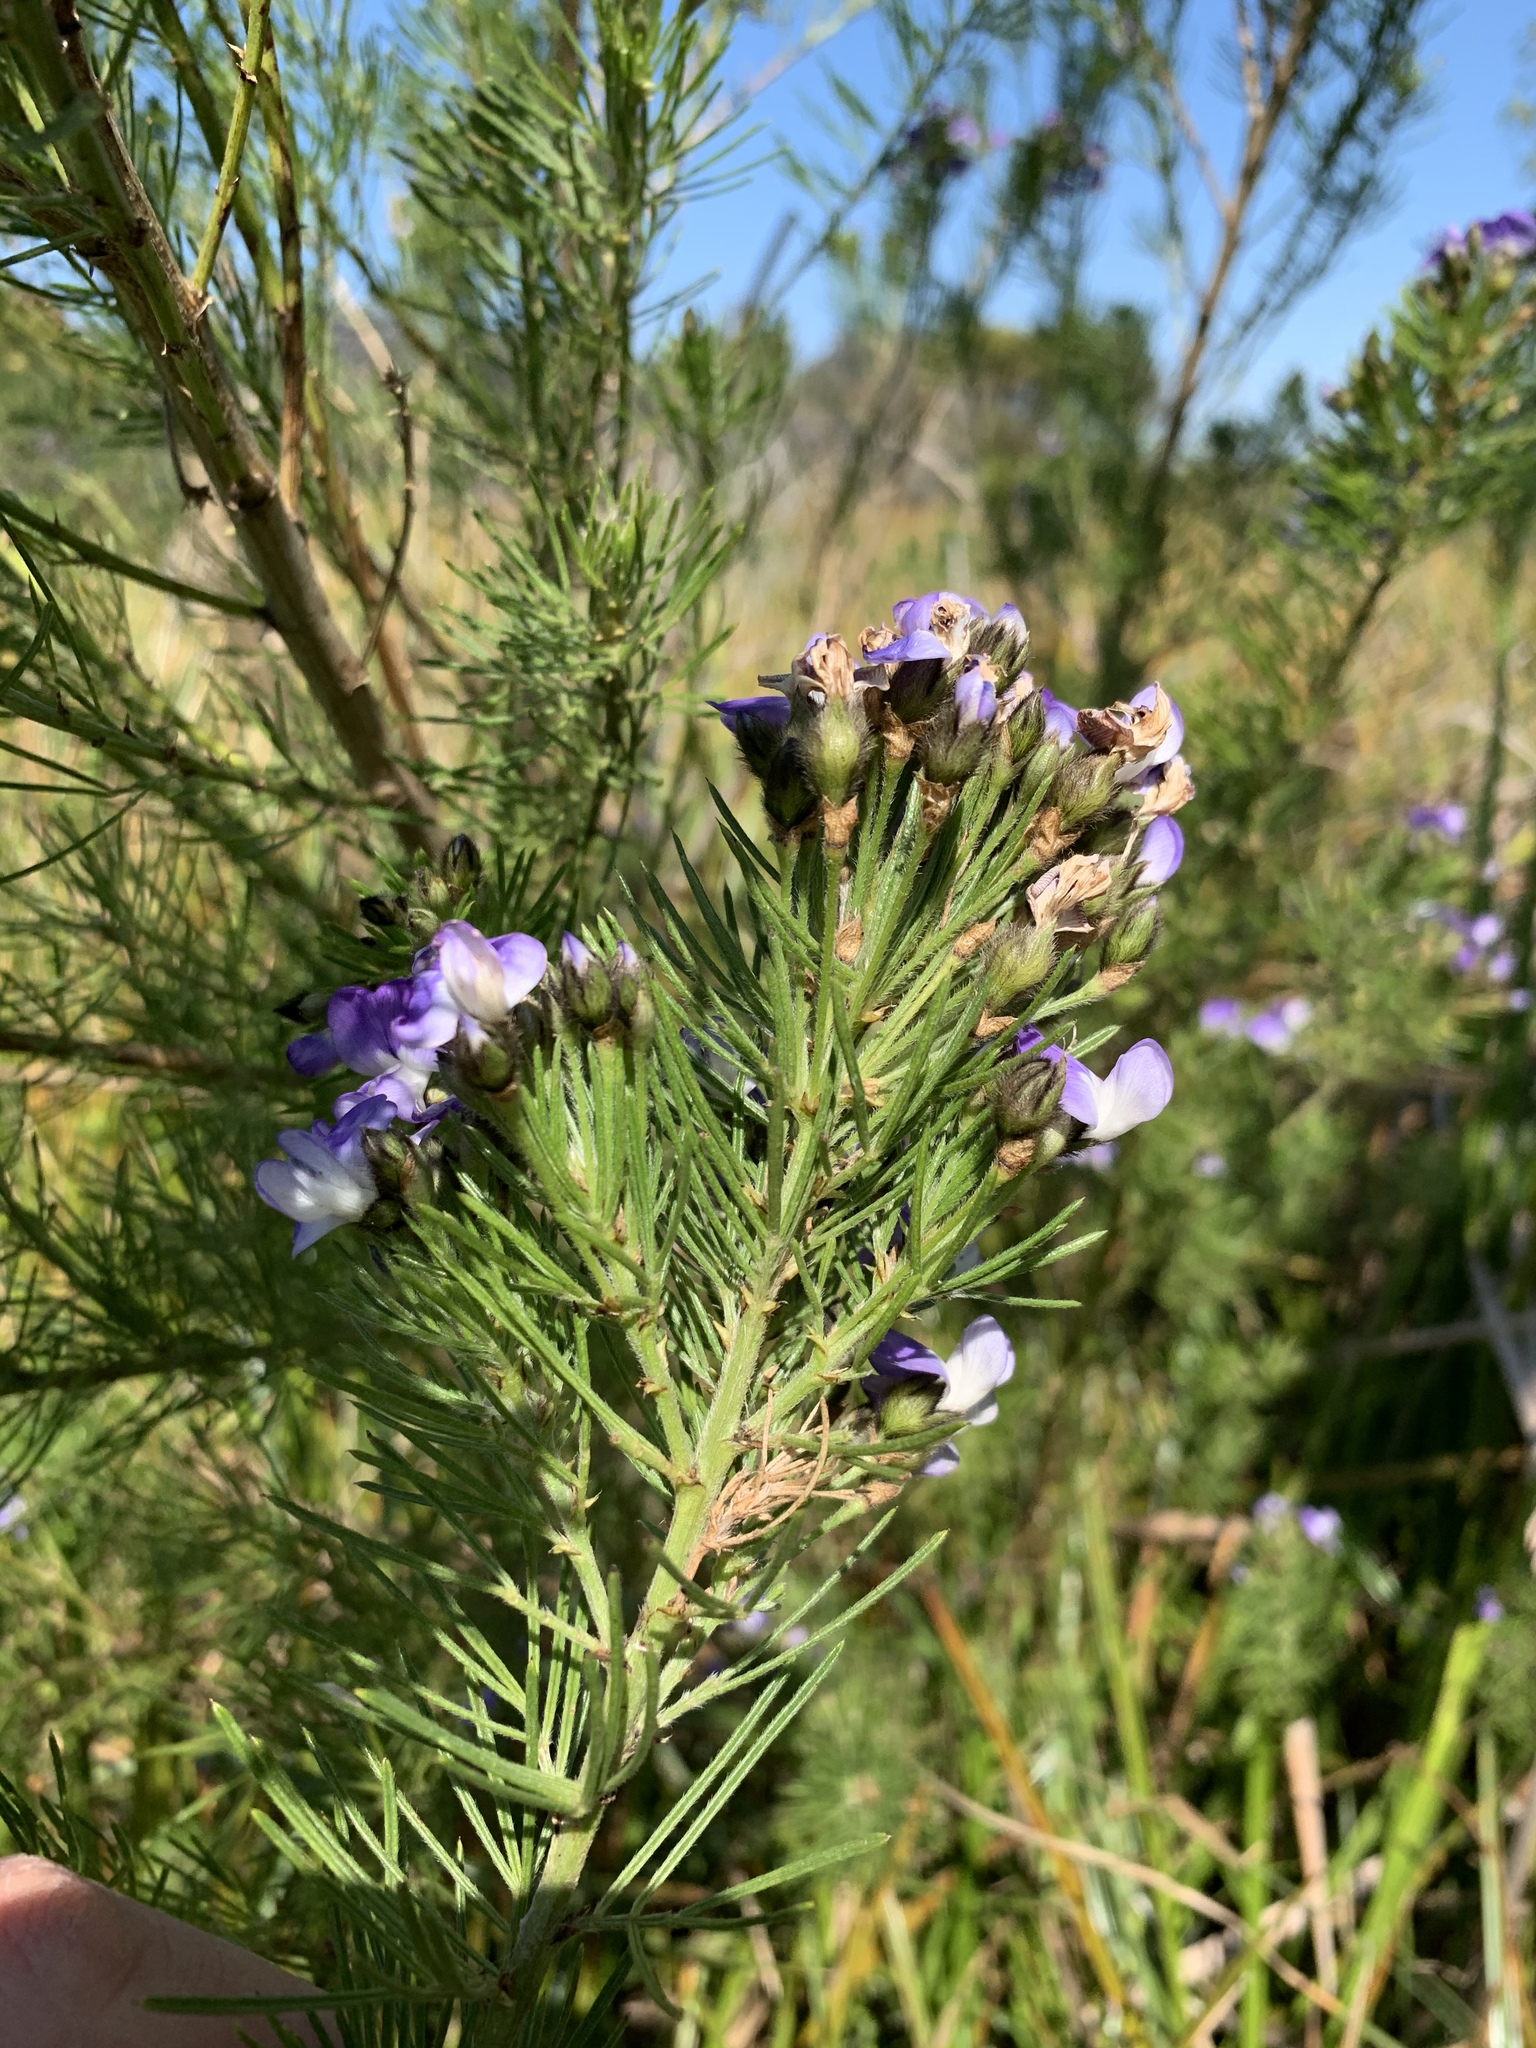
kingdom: Plantae
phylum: Tracheophyta
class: Magnoliopsida
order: Fabales
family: Fabaceae
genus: Psoralea
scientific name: Psoralea arborea
